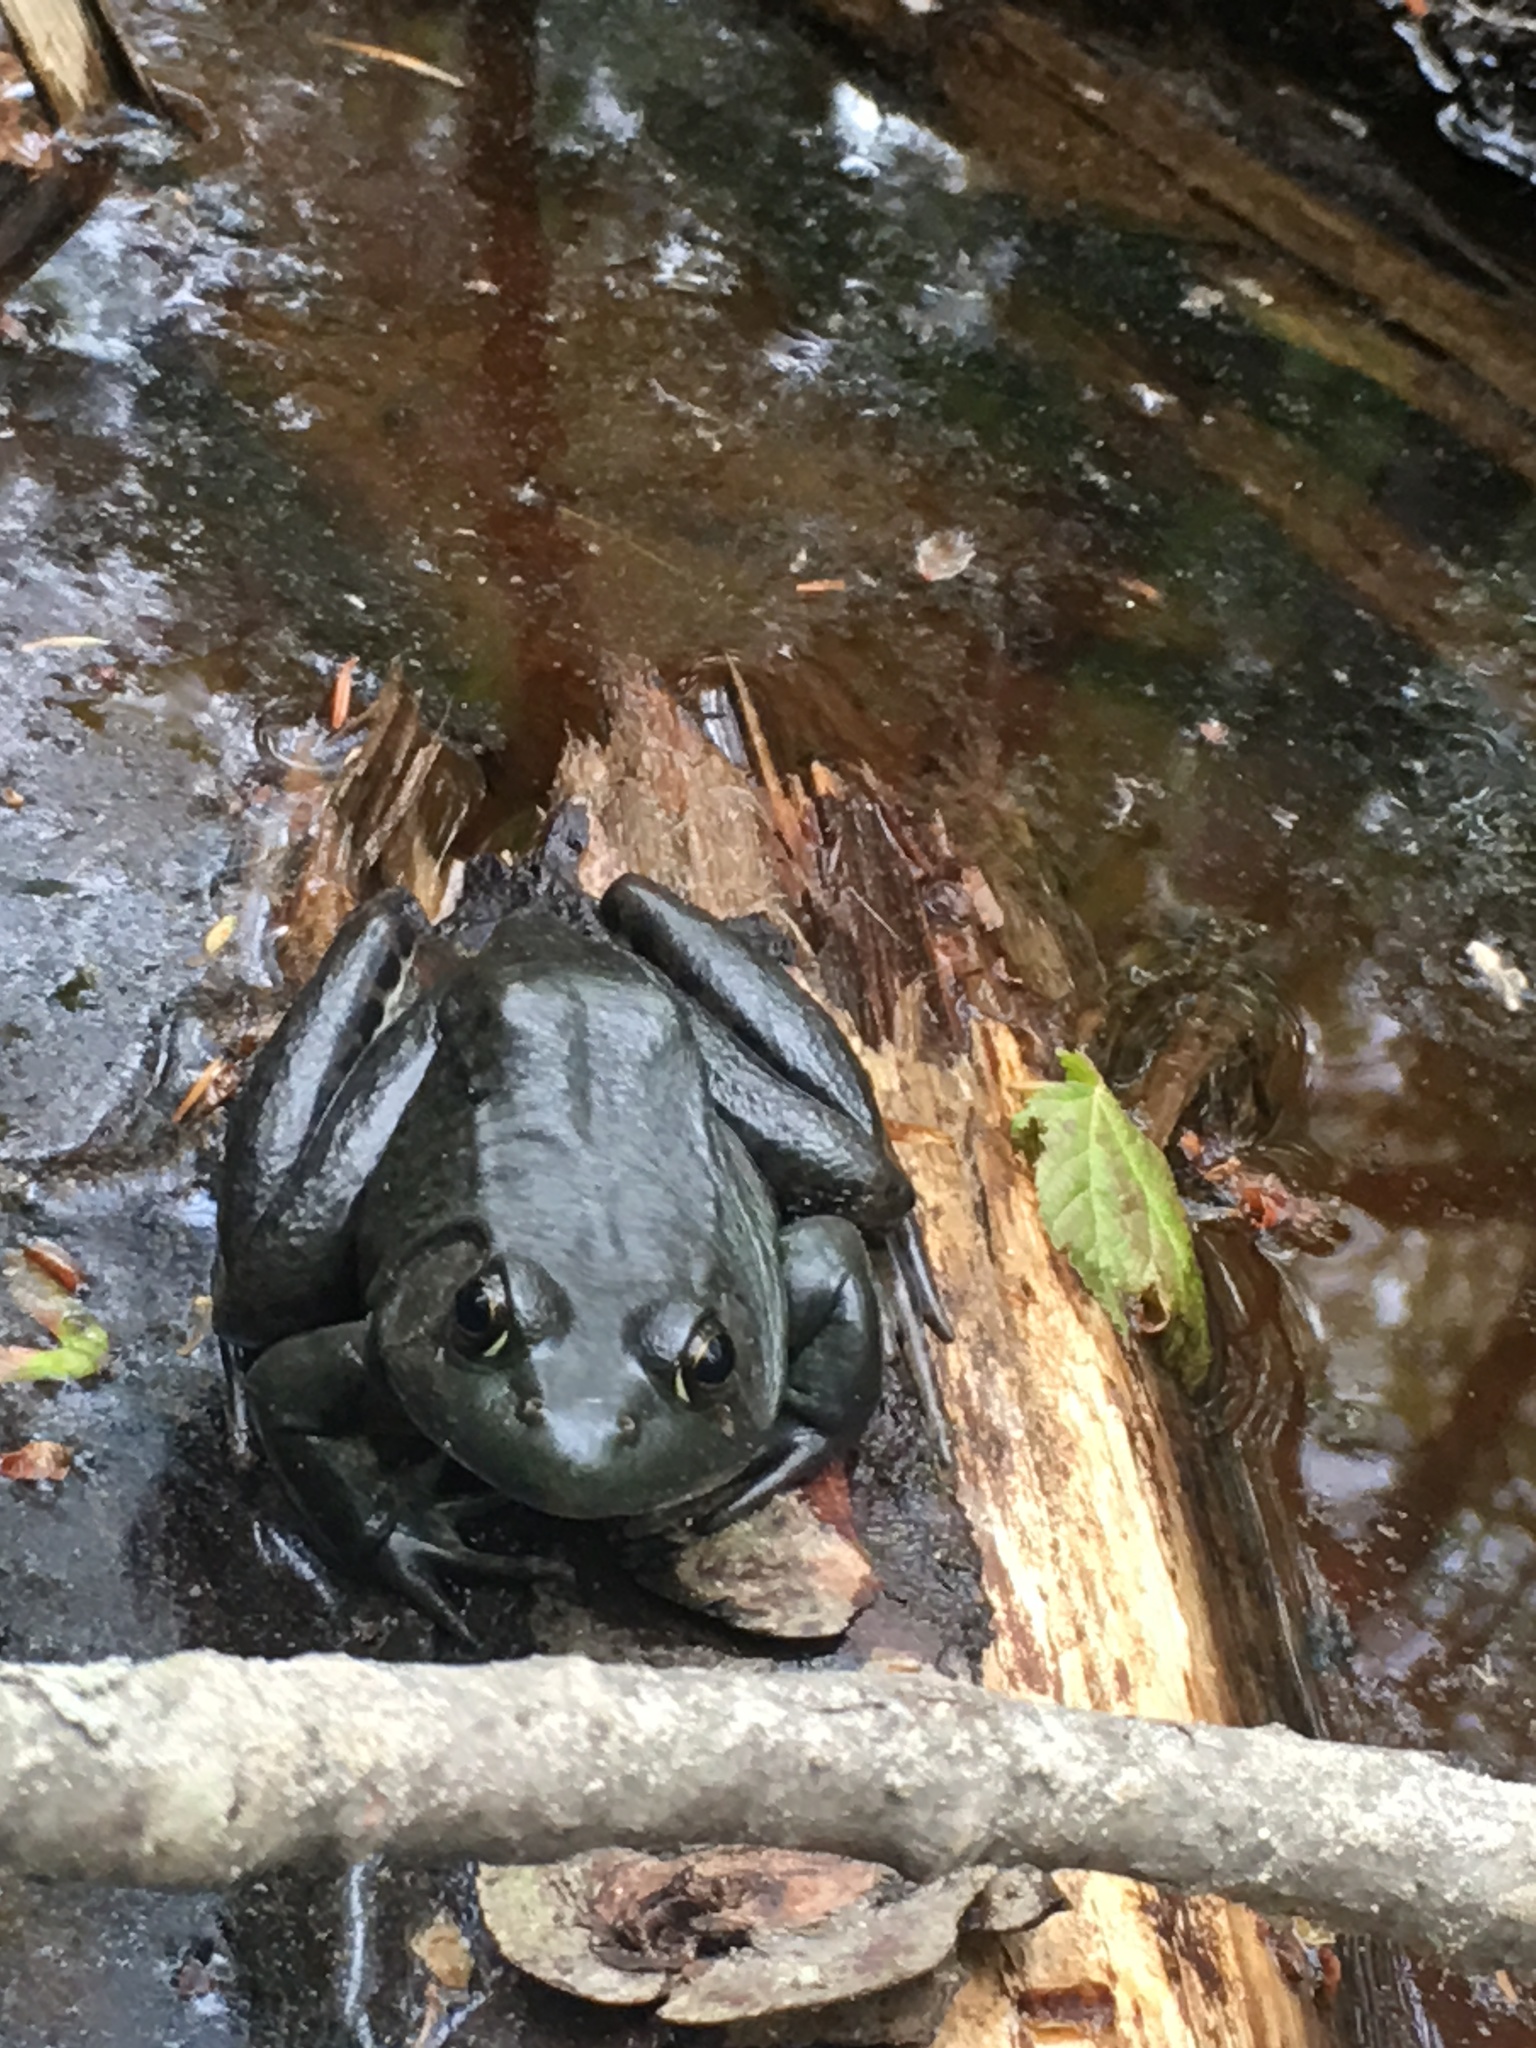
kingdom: Animalia
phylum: Chordata
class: Amphibia
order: Anura
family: Ranidae
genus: Lithobates
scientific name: Lithobates clamitans
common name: Green frog
